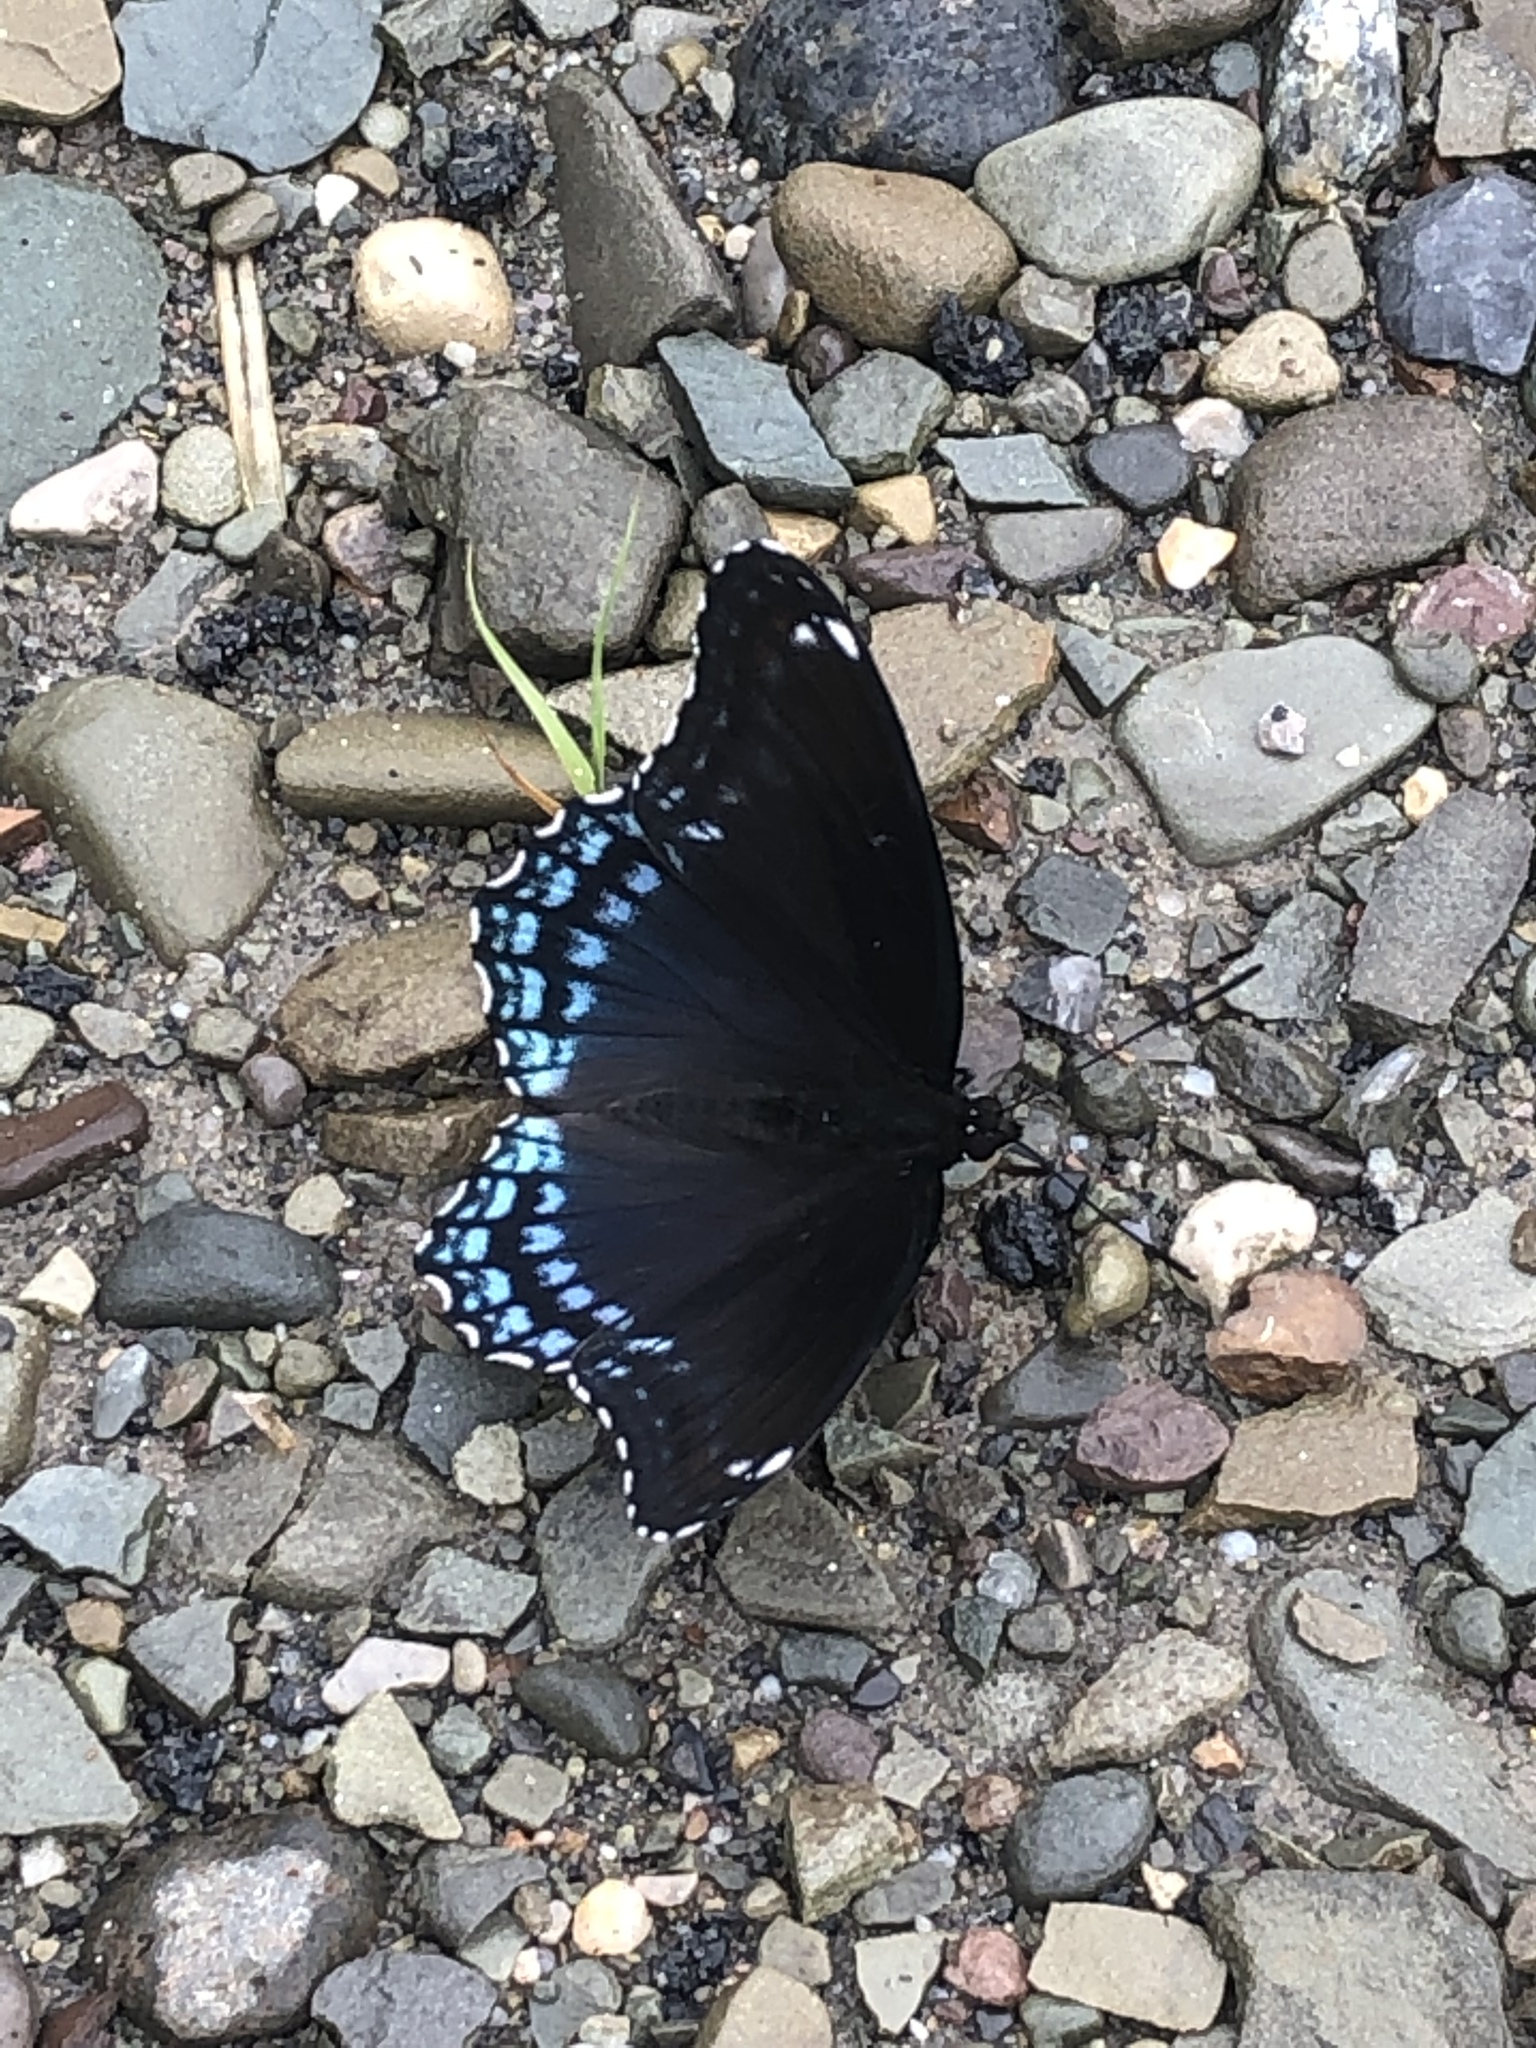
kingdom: Animalia
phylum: Arthropoda
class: Insecta
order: Lepidoptera
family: Nymphalidae
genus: Limenitis
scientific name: Limenitis astyanax
